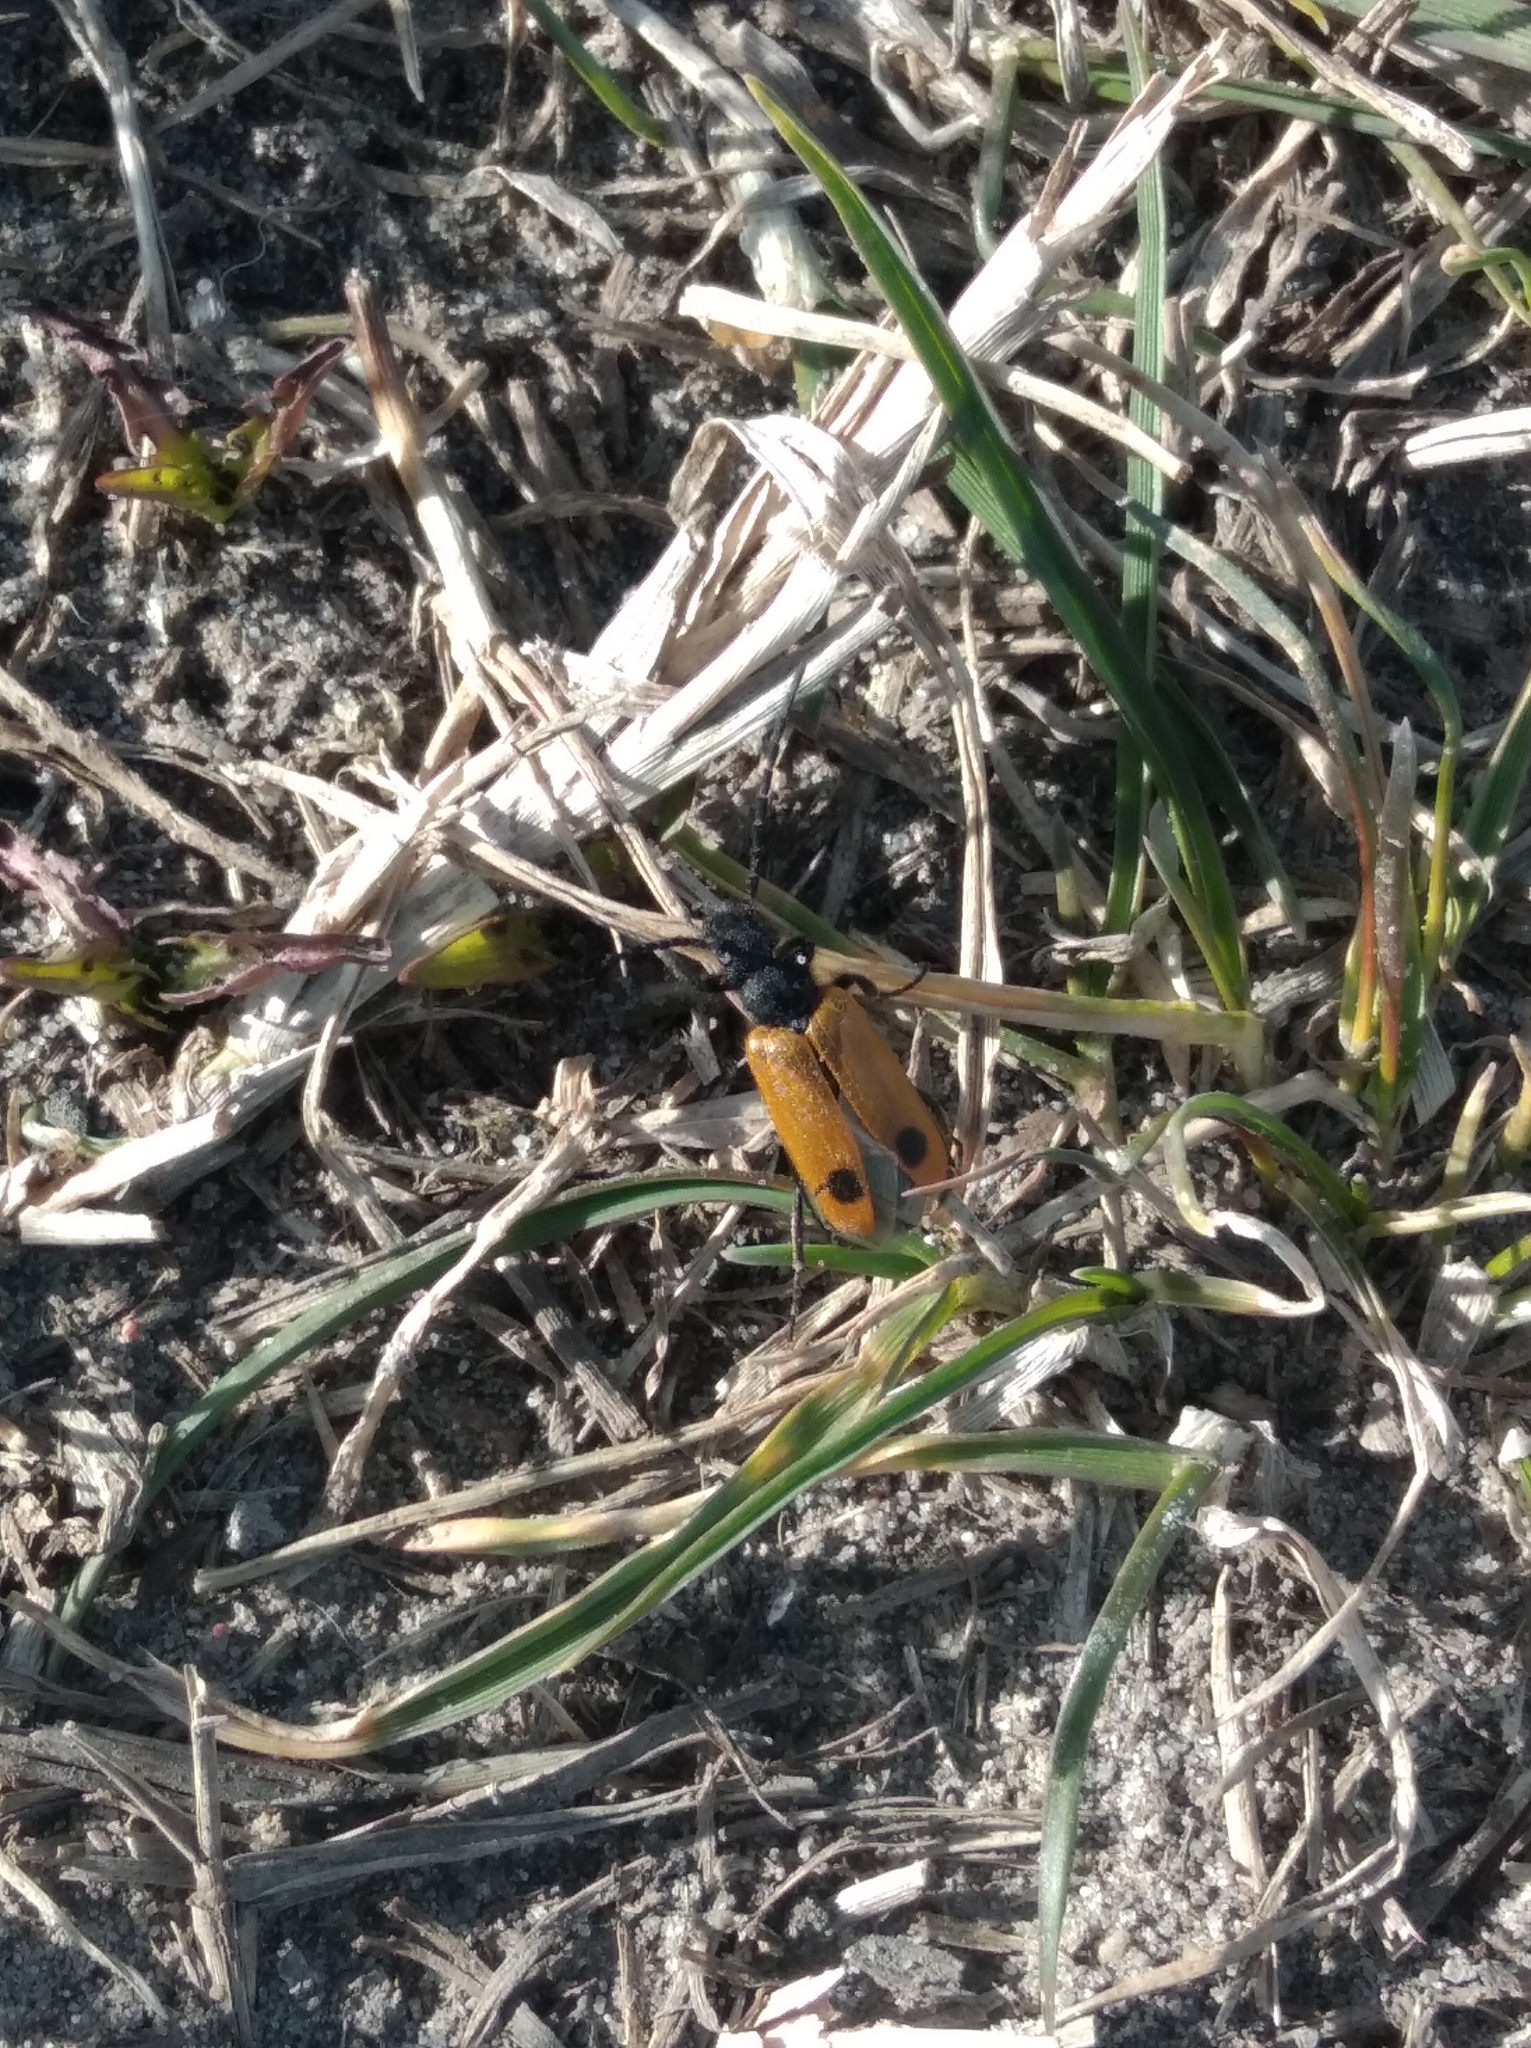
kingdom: Animalia
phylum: Arthropoda
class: Insecta
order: Coleoptera
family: Meloidae
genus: Apalus
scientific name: Apalus bimaculatus
